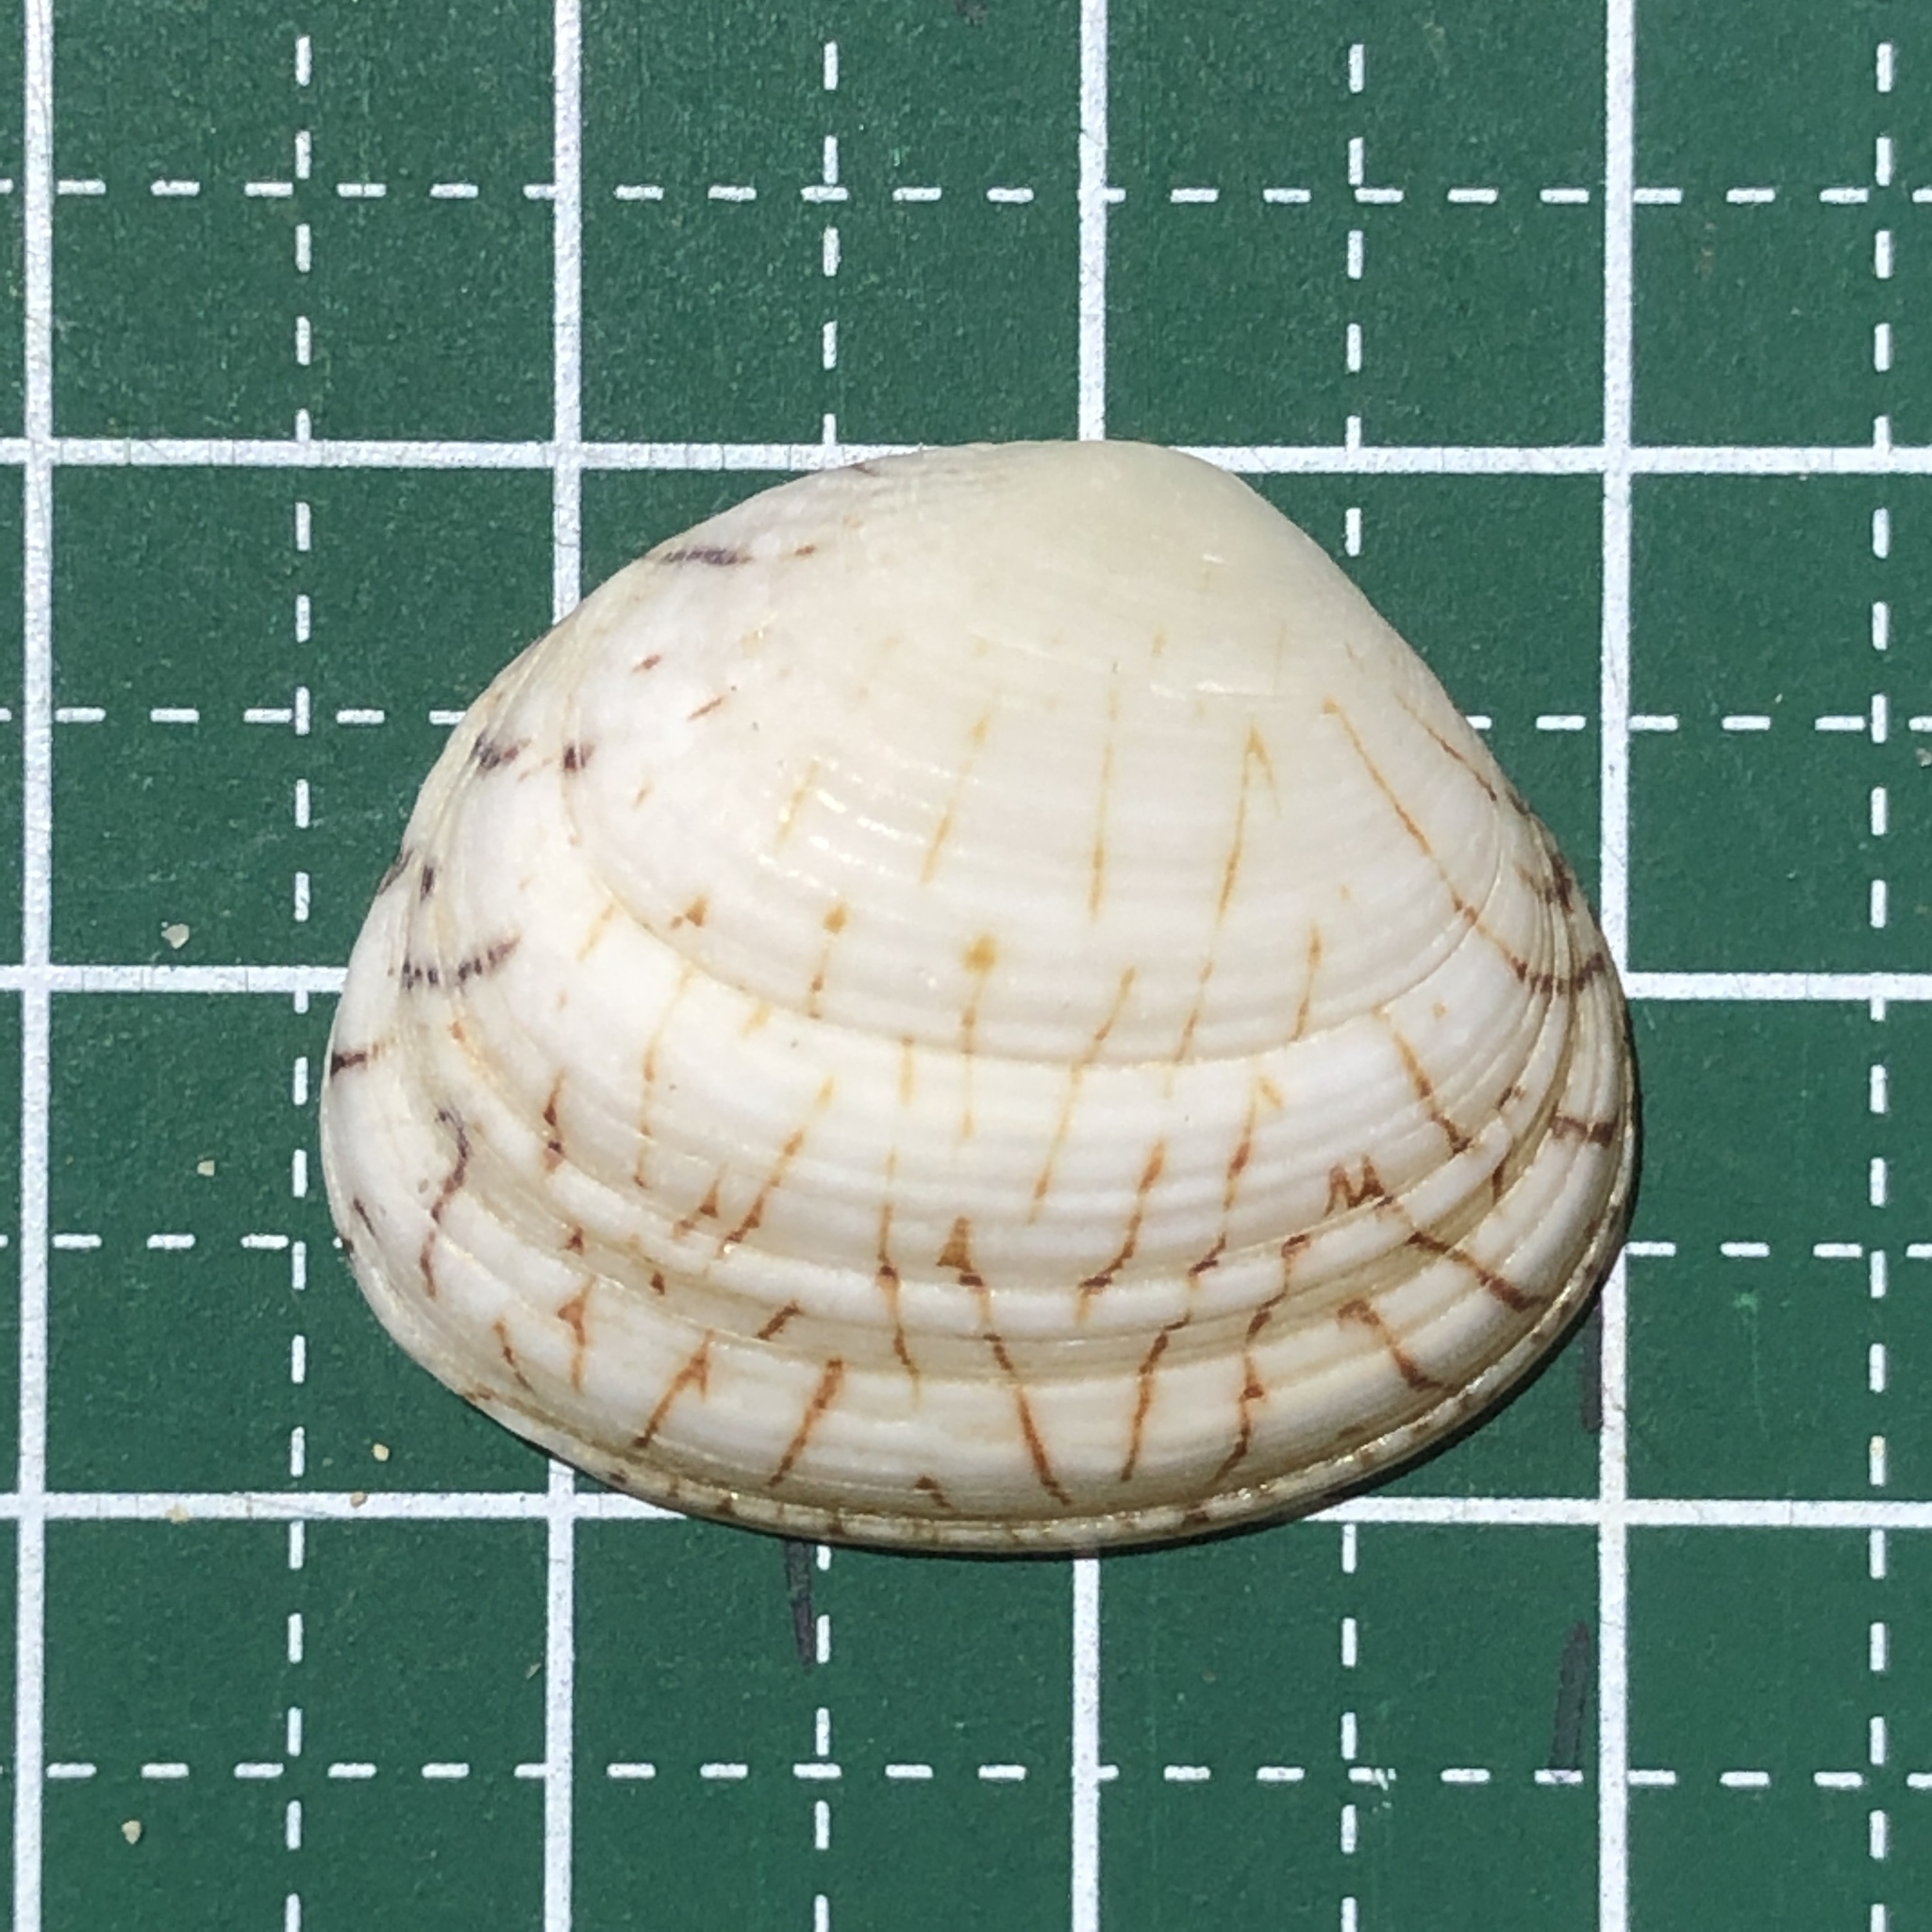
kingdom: Animalia
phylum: Mollusca
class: Bivalvia
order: Venerida
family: Veneridae
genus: Gafrarium
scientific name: Gafrarium dispar
